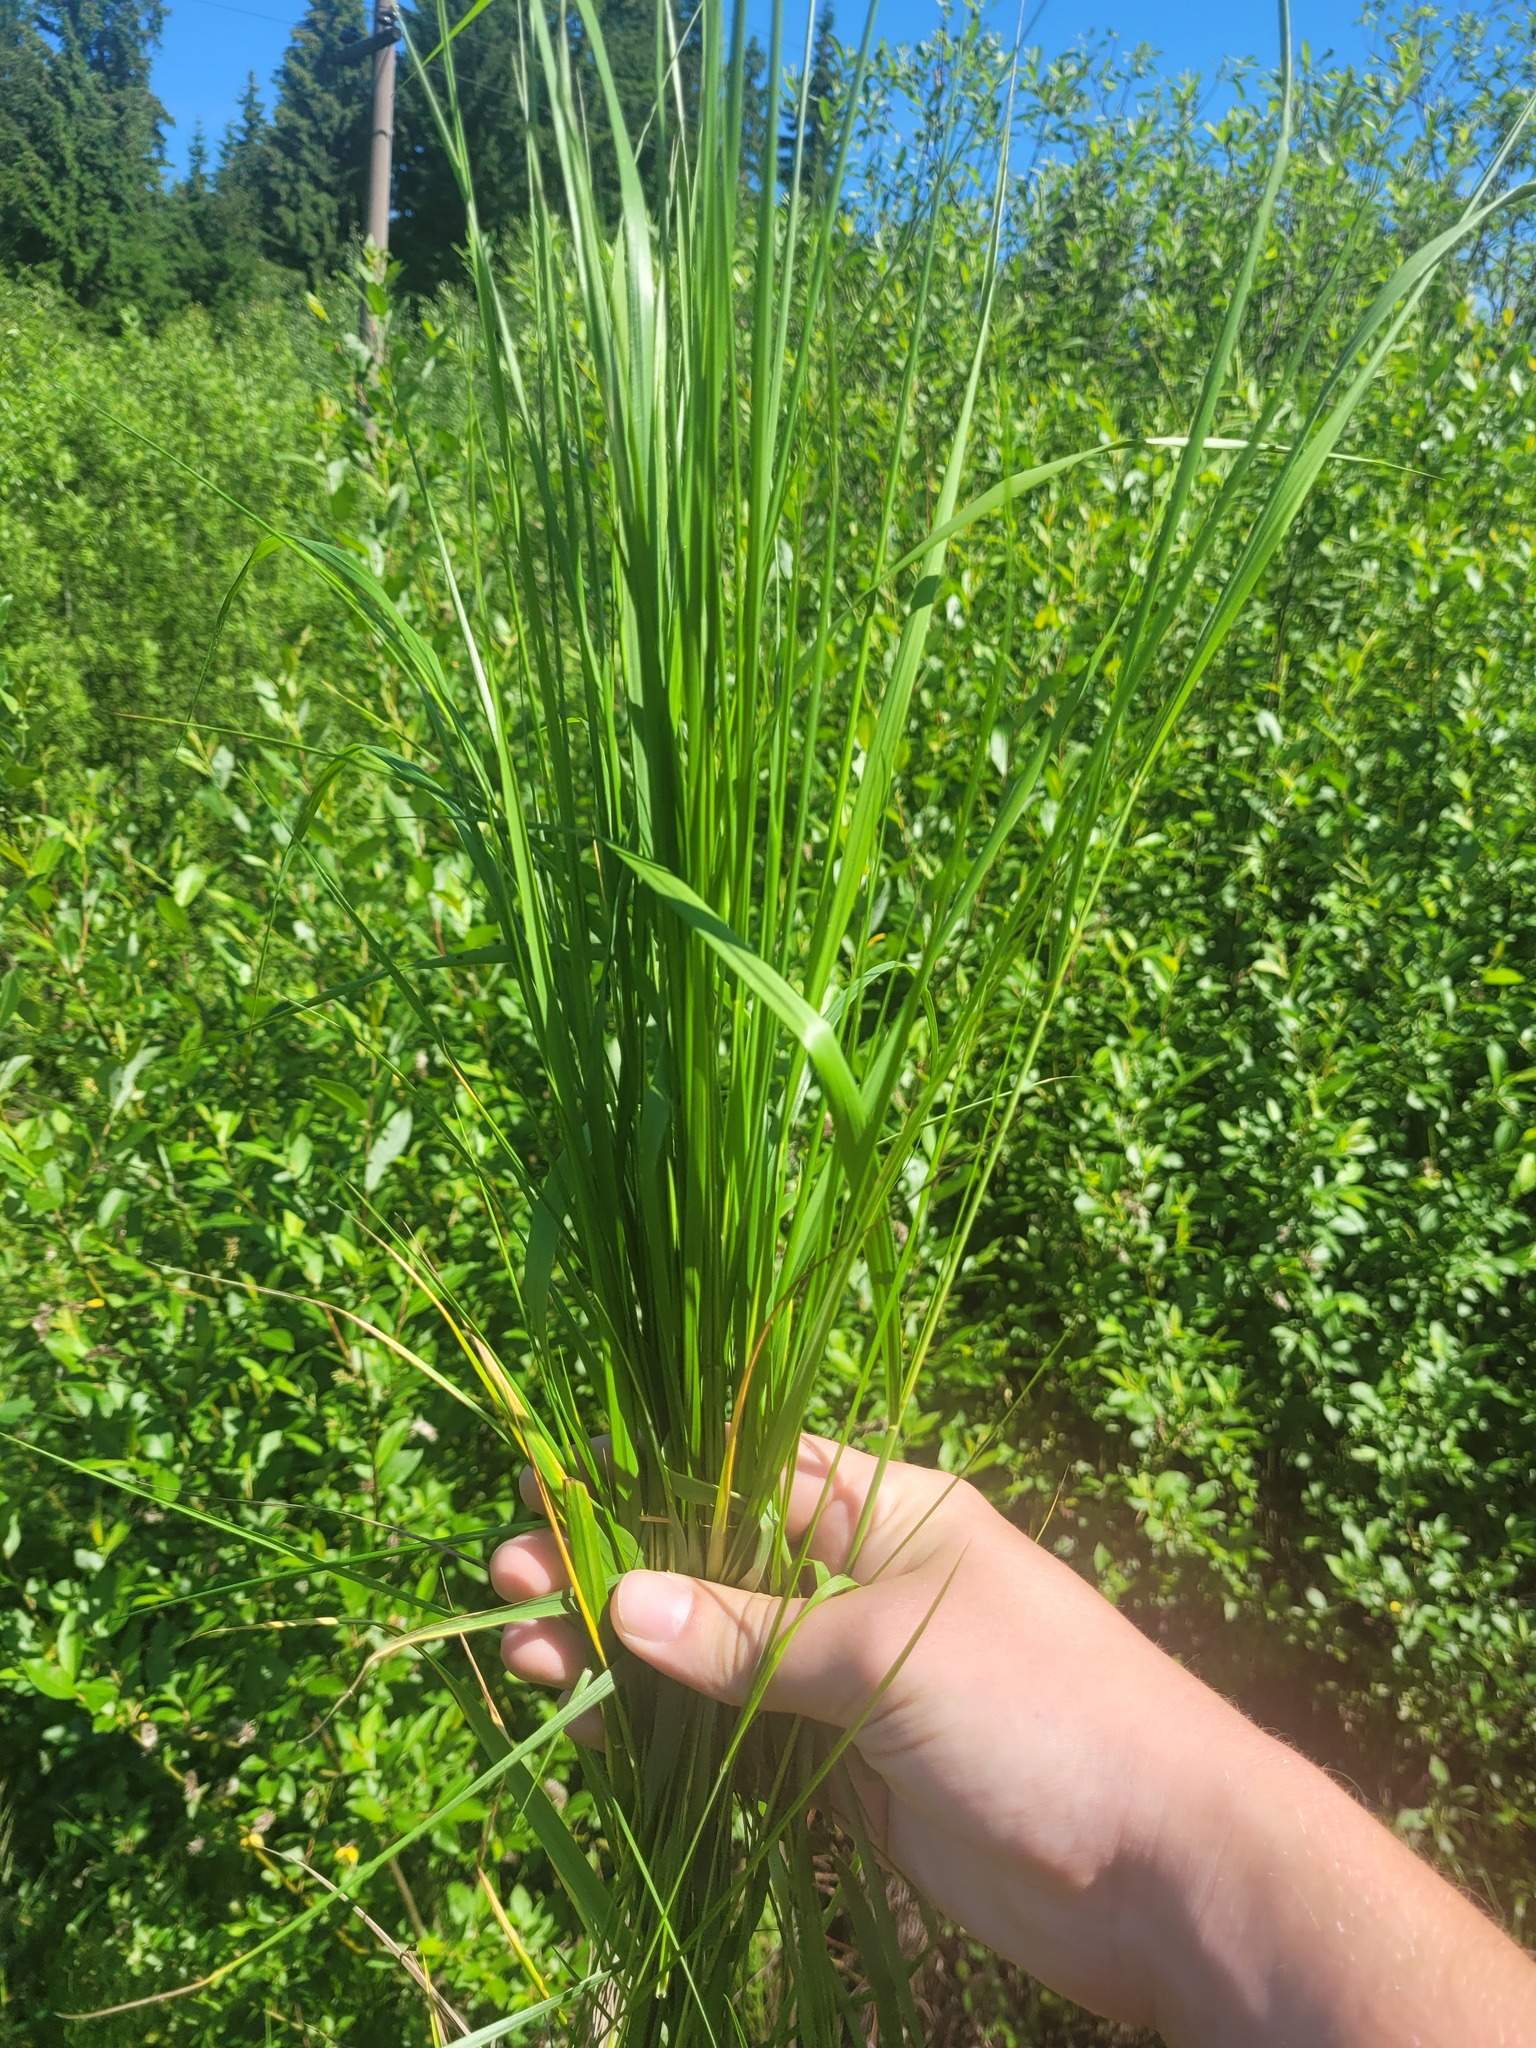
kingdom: Plantae
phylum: Tracheophyta
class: Liliopsida
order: Poales
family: Poaceae
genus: Calamagrostis
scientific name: Calamagrostis canescens
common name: Purple small-reed
